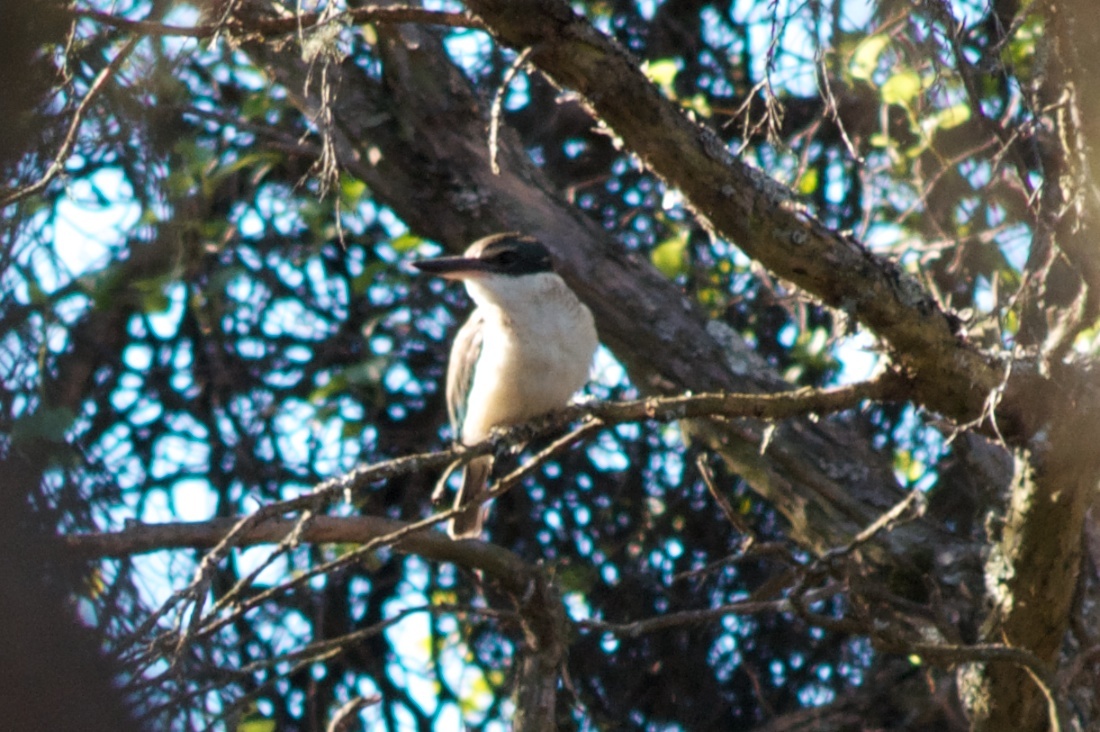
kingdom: Animalia
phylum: Chordata
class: Aves
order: Coraciiformes
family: Alcedinidae
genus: Todiramphus
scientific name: Todiramphus sanctus
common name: Sacred kingfisher
